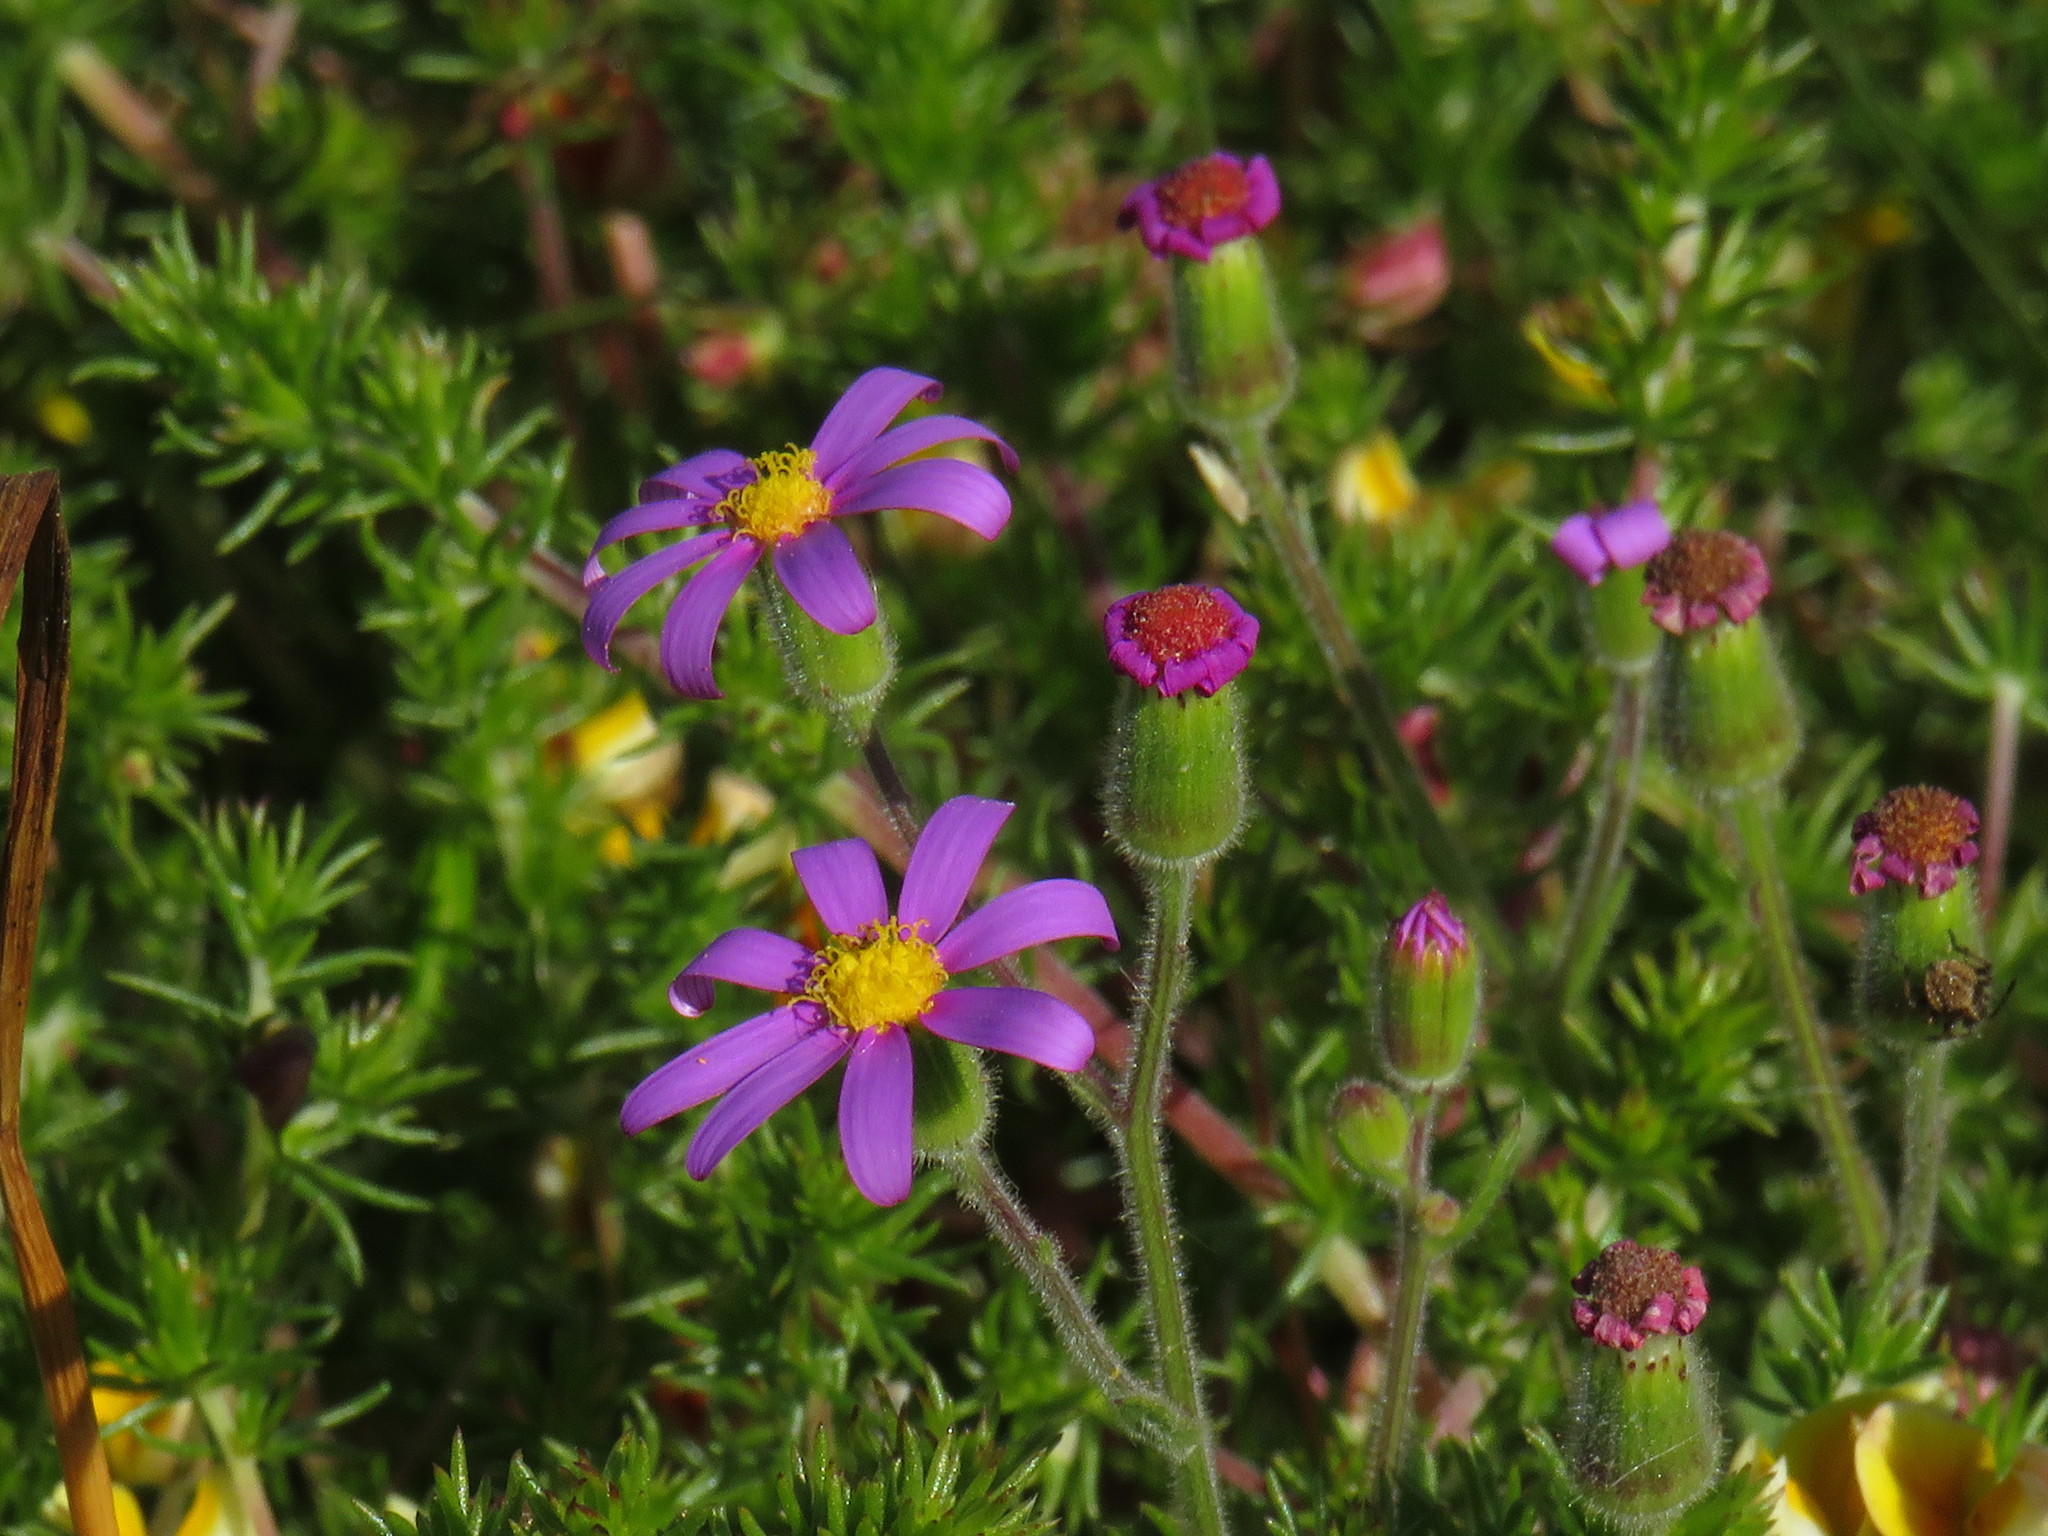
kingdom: Plantae
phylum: Tracheophyta
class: Magnoliopsida
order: Asterales
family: Asteraceae
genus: Senecio
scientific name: Senecio arenarius
